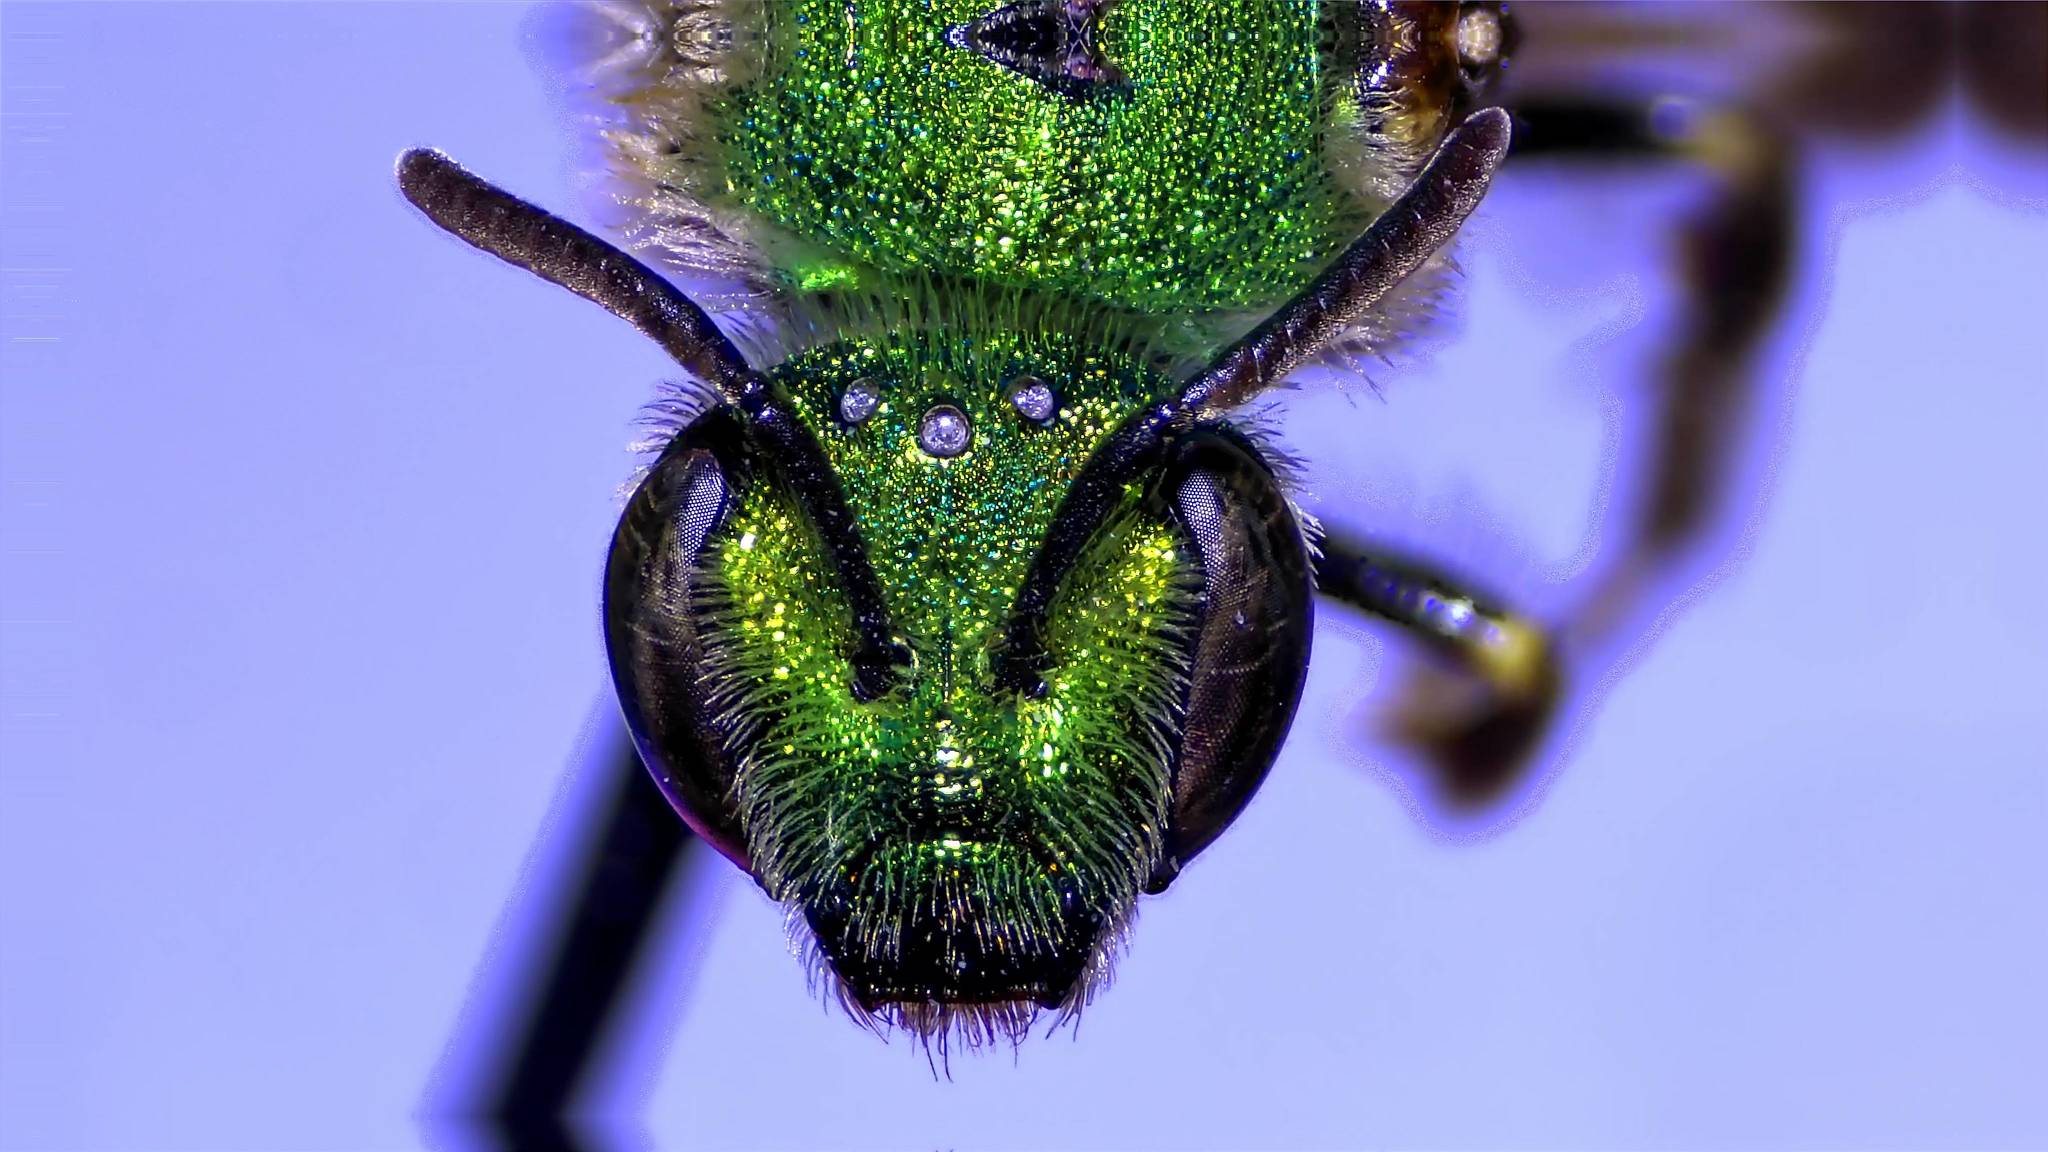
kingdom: Animalia
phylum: Arthropoda
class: Insecta
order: Hymenoptera
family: Halictidae
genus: Agapostemon
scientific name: Agapostemon virescens
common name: Bicolored striped sweat bee
